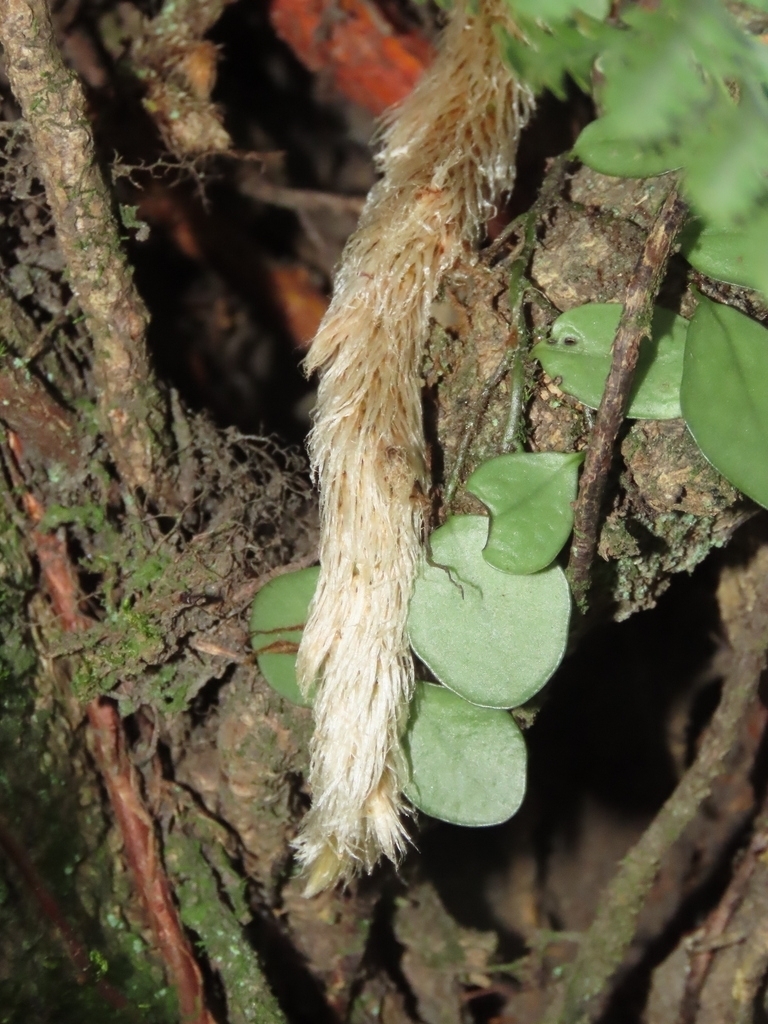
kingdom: Plantae
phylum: Tracheophyta
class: Polypodiopsida
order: Polypodiales
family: Polypodiaceae
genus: Lepisorus
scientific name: Lepisorus microphyllus
